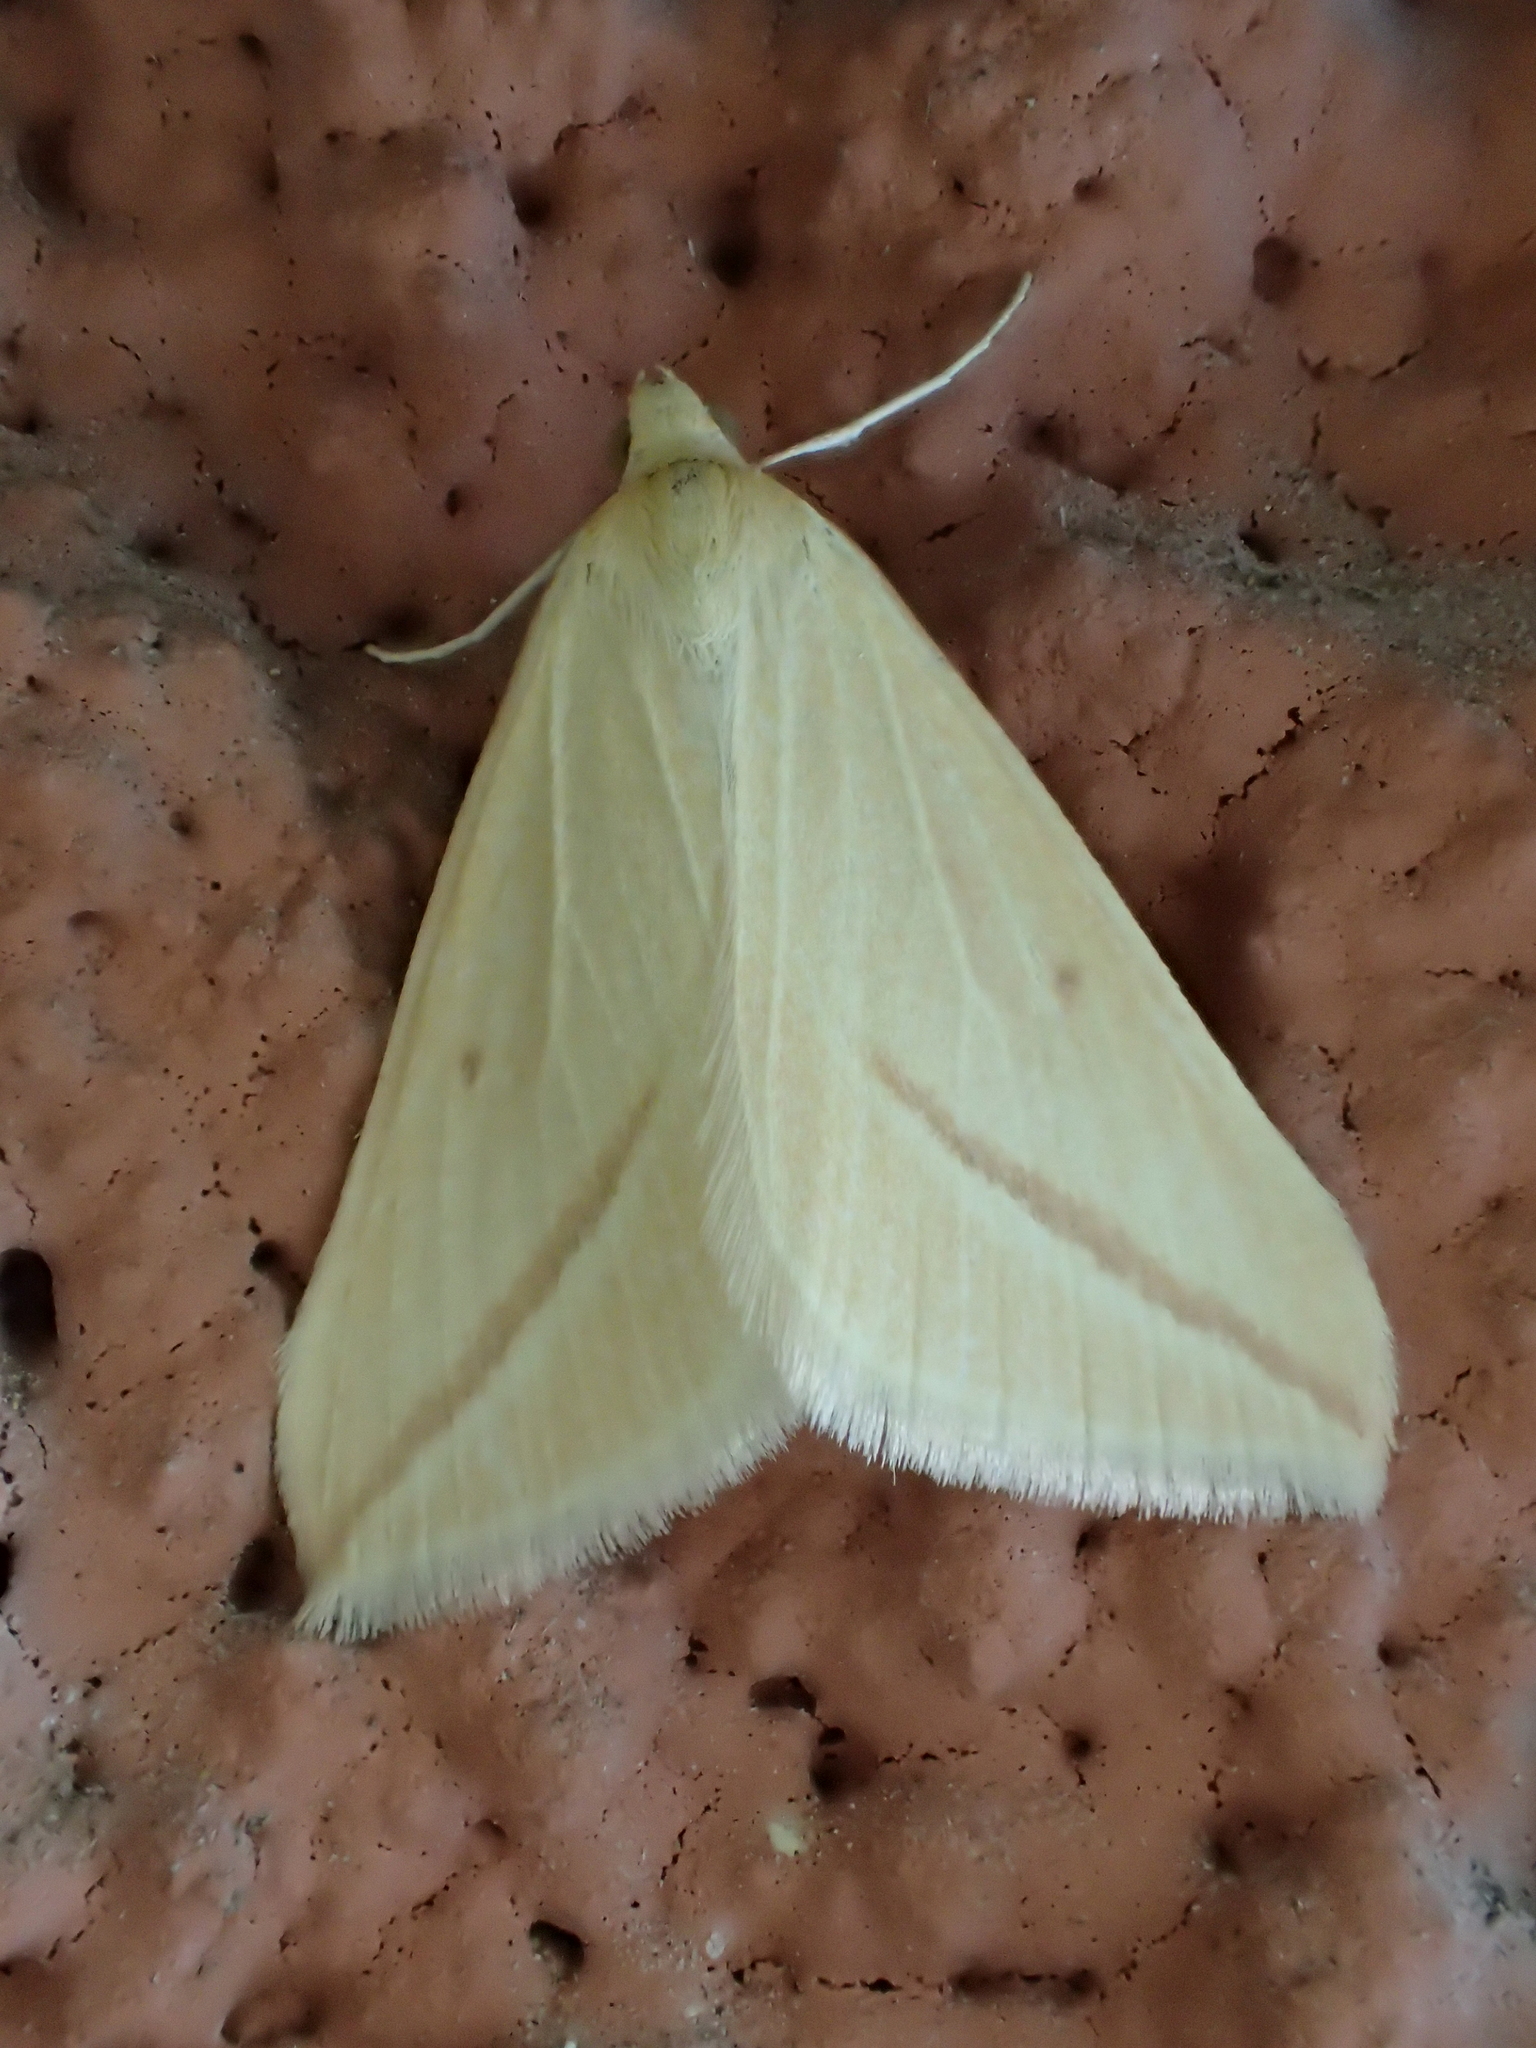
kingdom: Animalia
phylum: Arthropoda
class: Insecta
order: Lepidoptera
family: Geometridae
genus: Rhodometra
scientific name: Rhodometra sacraria
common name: Vestal
